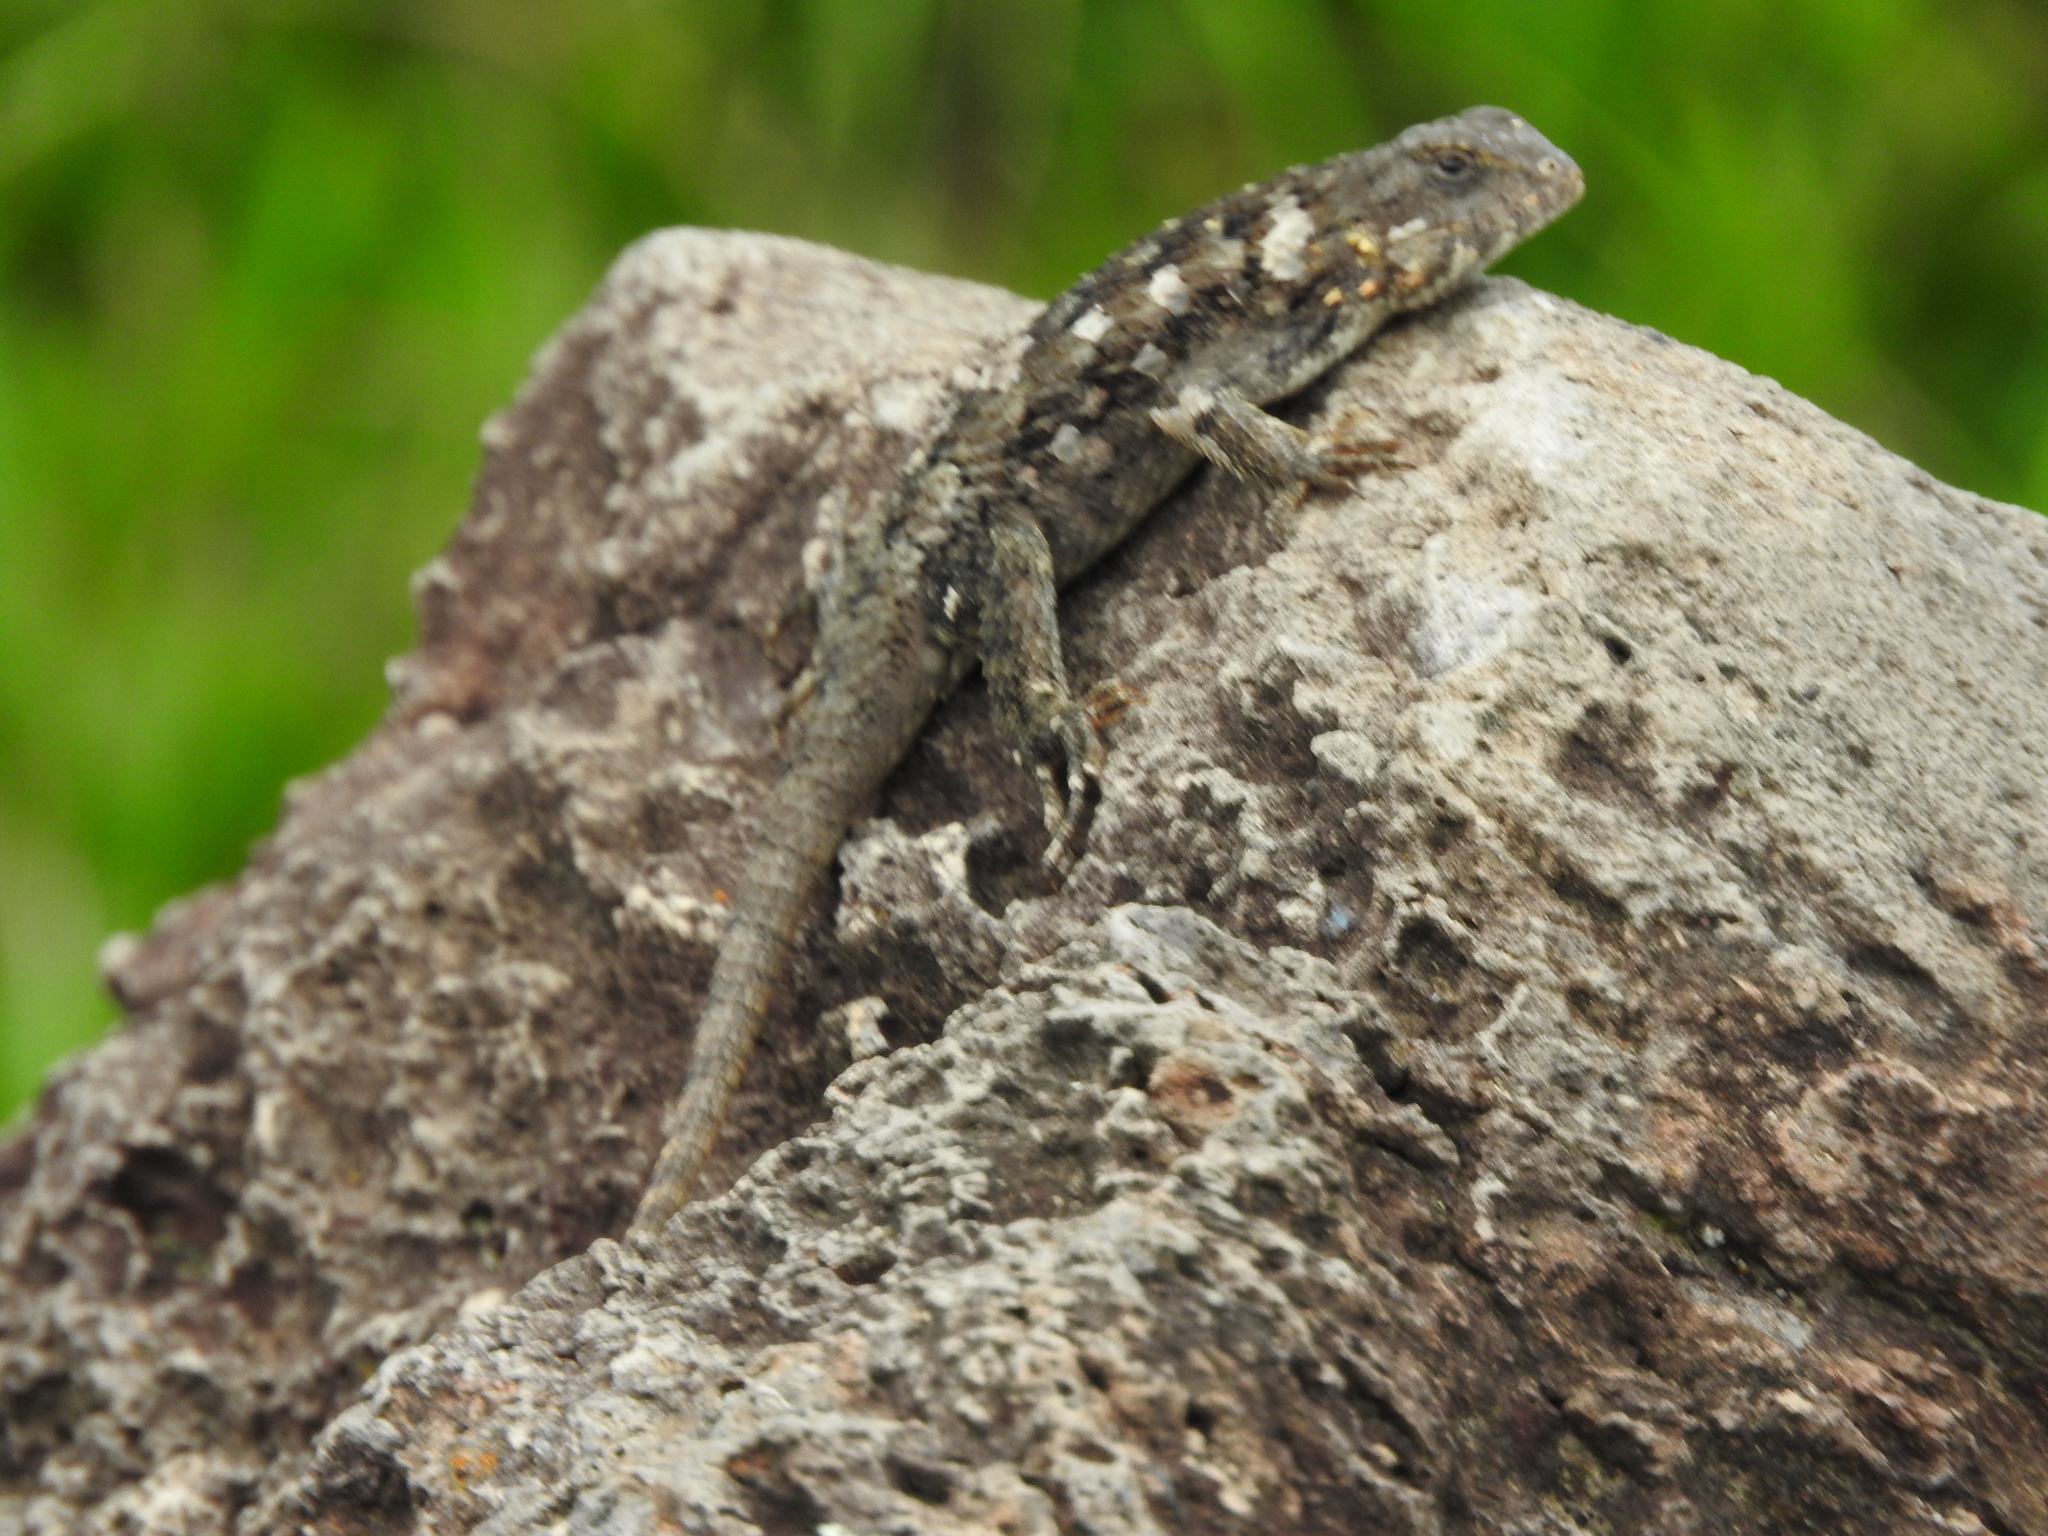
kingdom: Animalia
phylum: Chordata
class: Squamata
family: Phrynosomatidae
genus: Sceloporus
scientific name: Sceloporus spinosus
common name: Blue-spotted spiny lizard [caeruleopunctatus]
